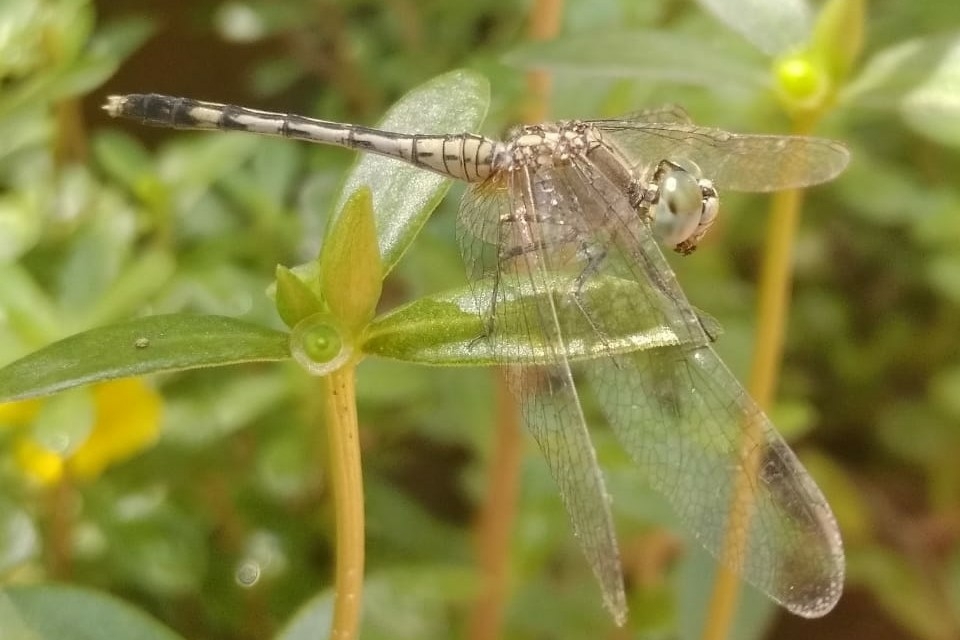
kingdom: Animalia
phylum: Arthropoda
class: Insecta
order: Odonata
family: Libellulidae
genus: Diplacodes
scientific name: Diplacodes trivialis
